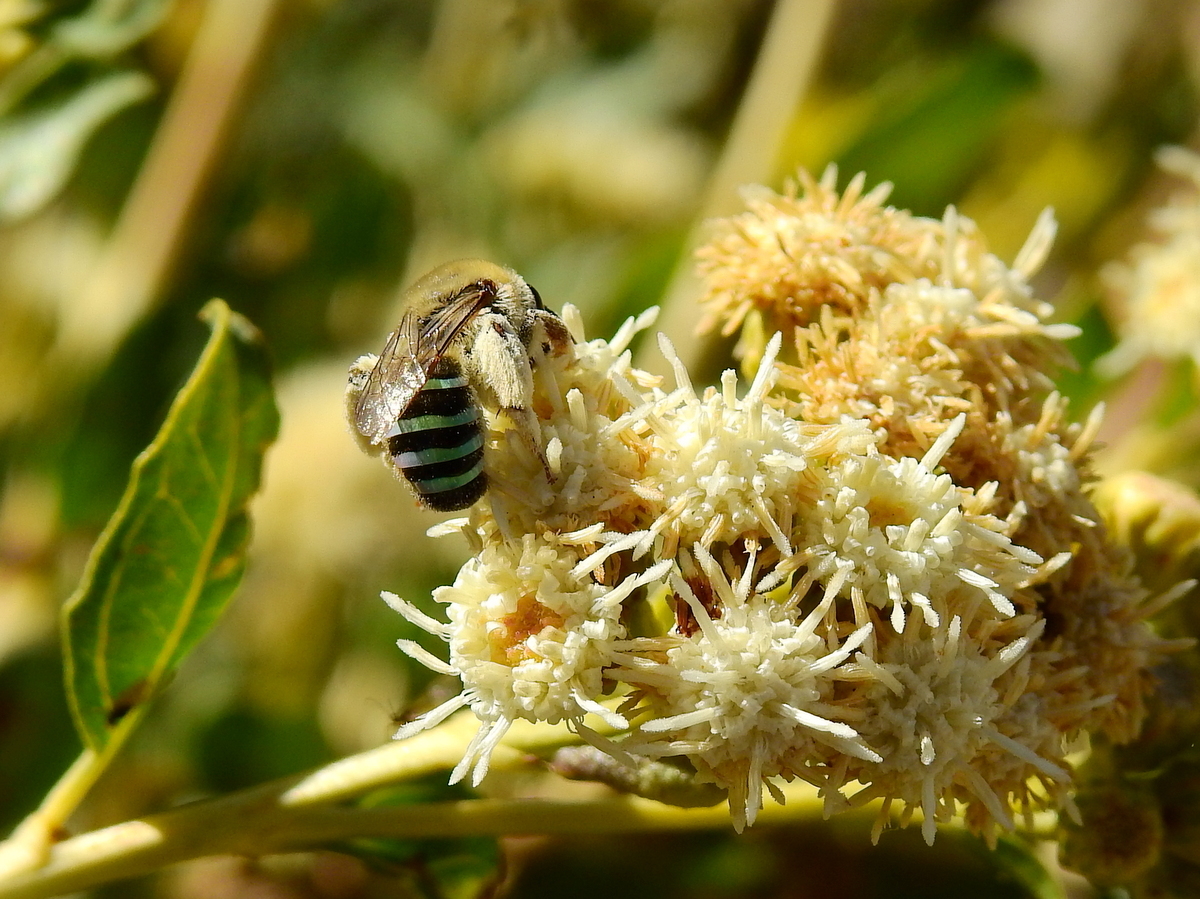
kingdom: Animalia
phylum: Arthropoda
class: Insecta
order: Hymenoptera
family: Colletidae
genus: Nomiocolletes
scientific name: Nomiocolletes
